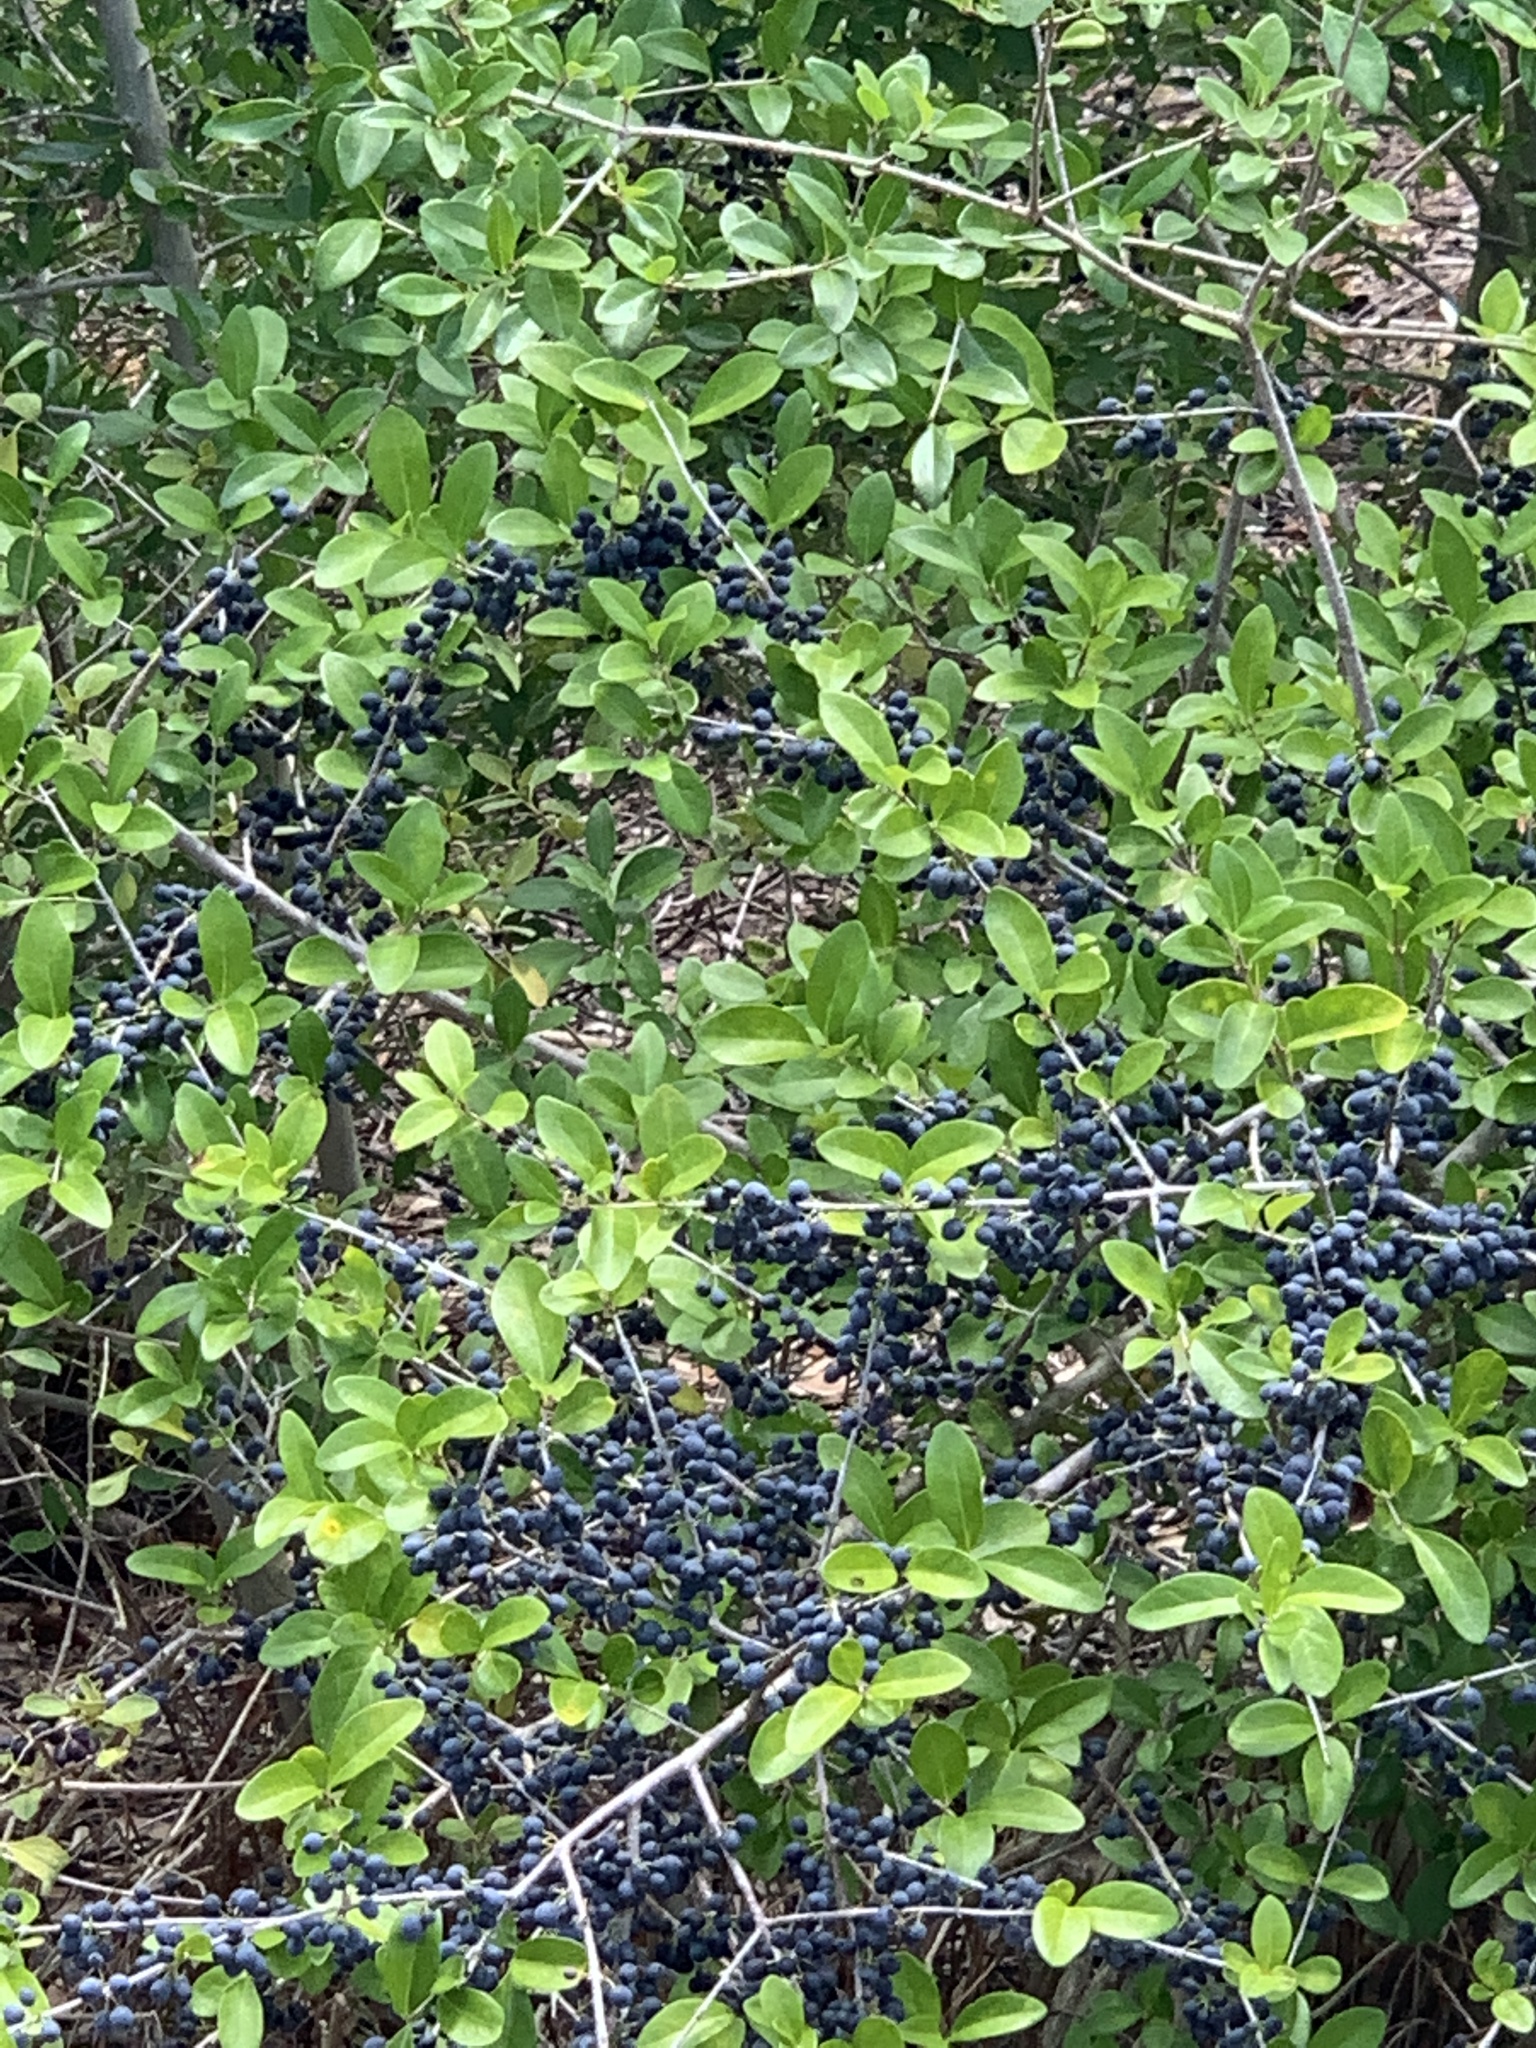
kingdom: Plantae
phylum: Tracheophyta
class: Magnoliopsida
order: Lamiales
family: Oleaceae
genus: Forestiera
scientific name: Forestiera segregata
